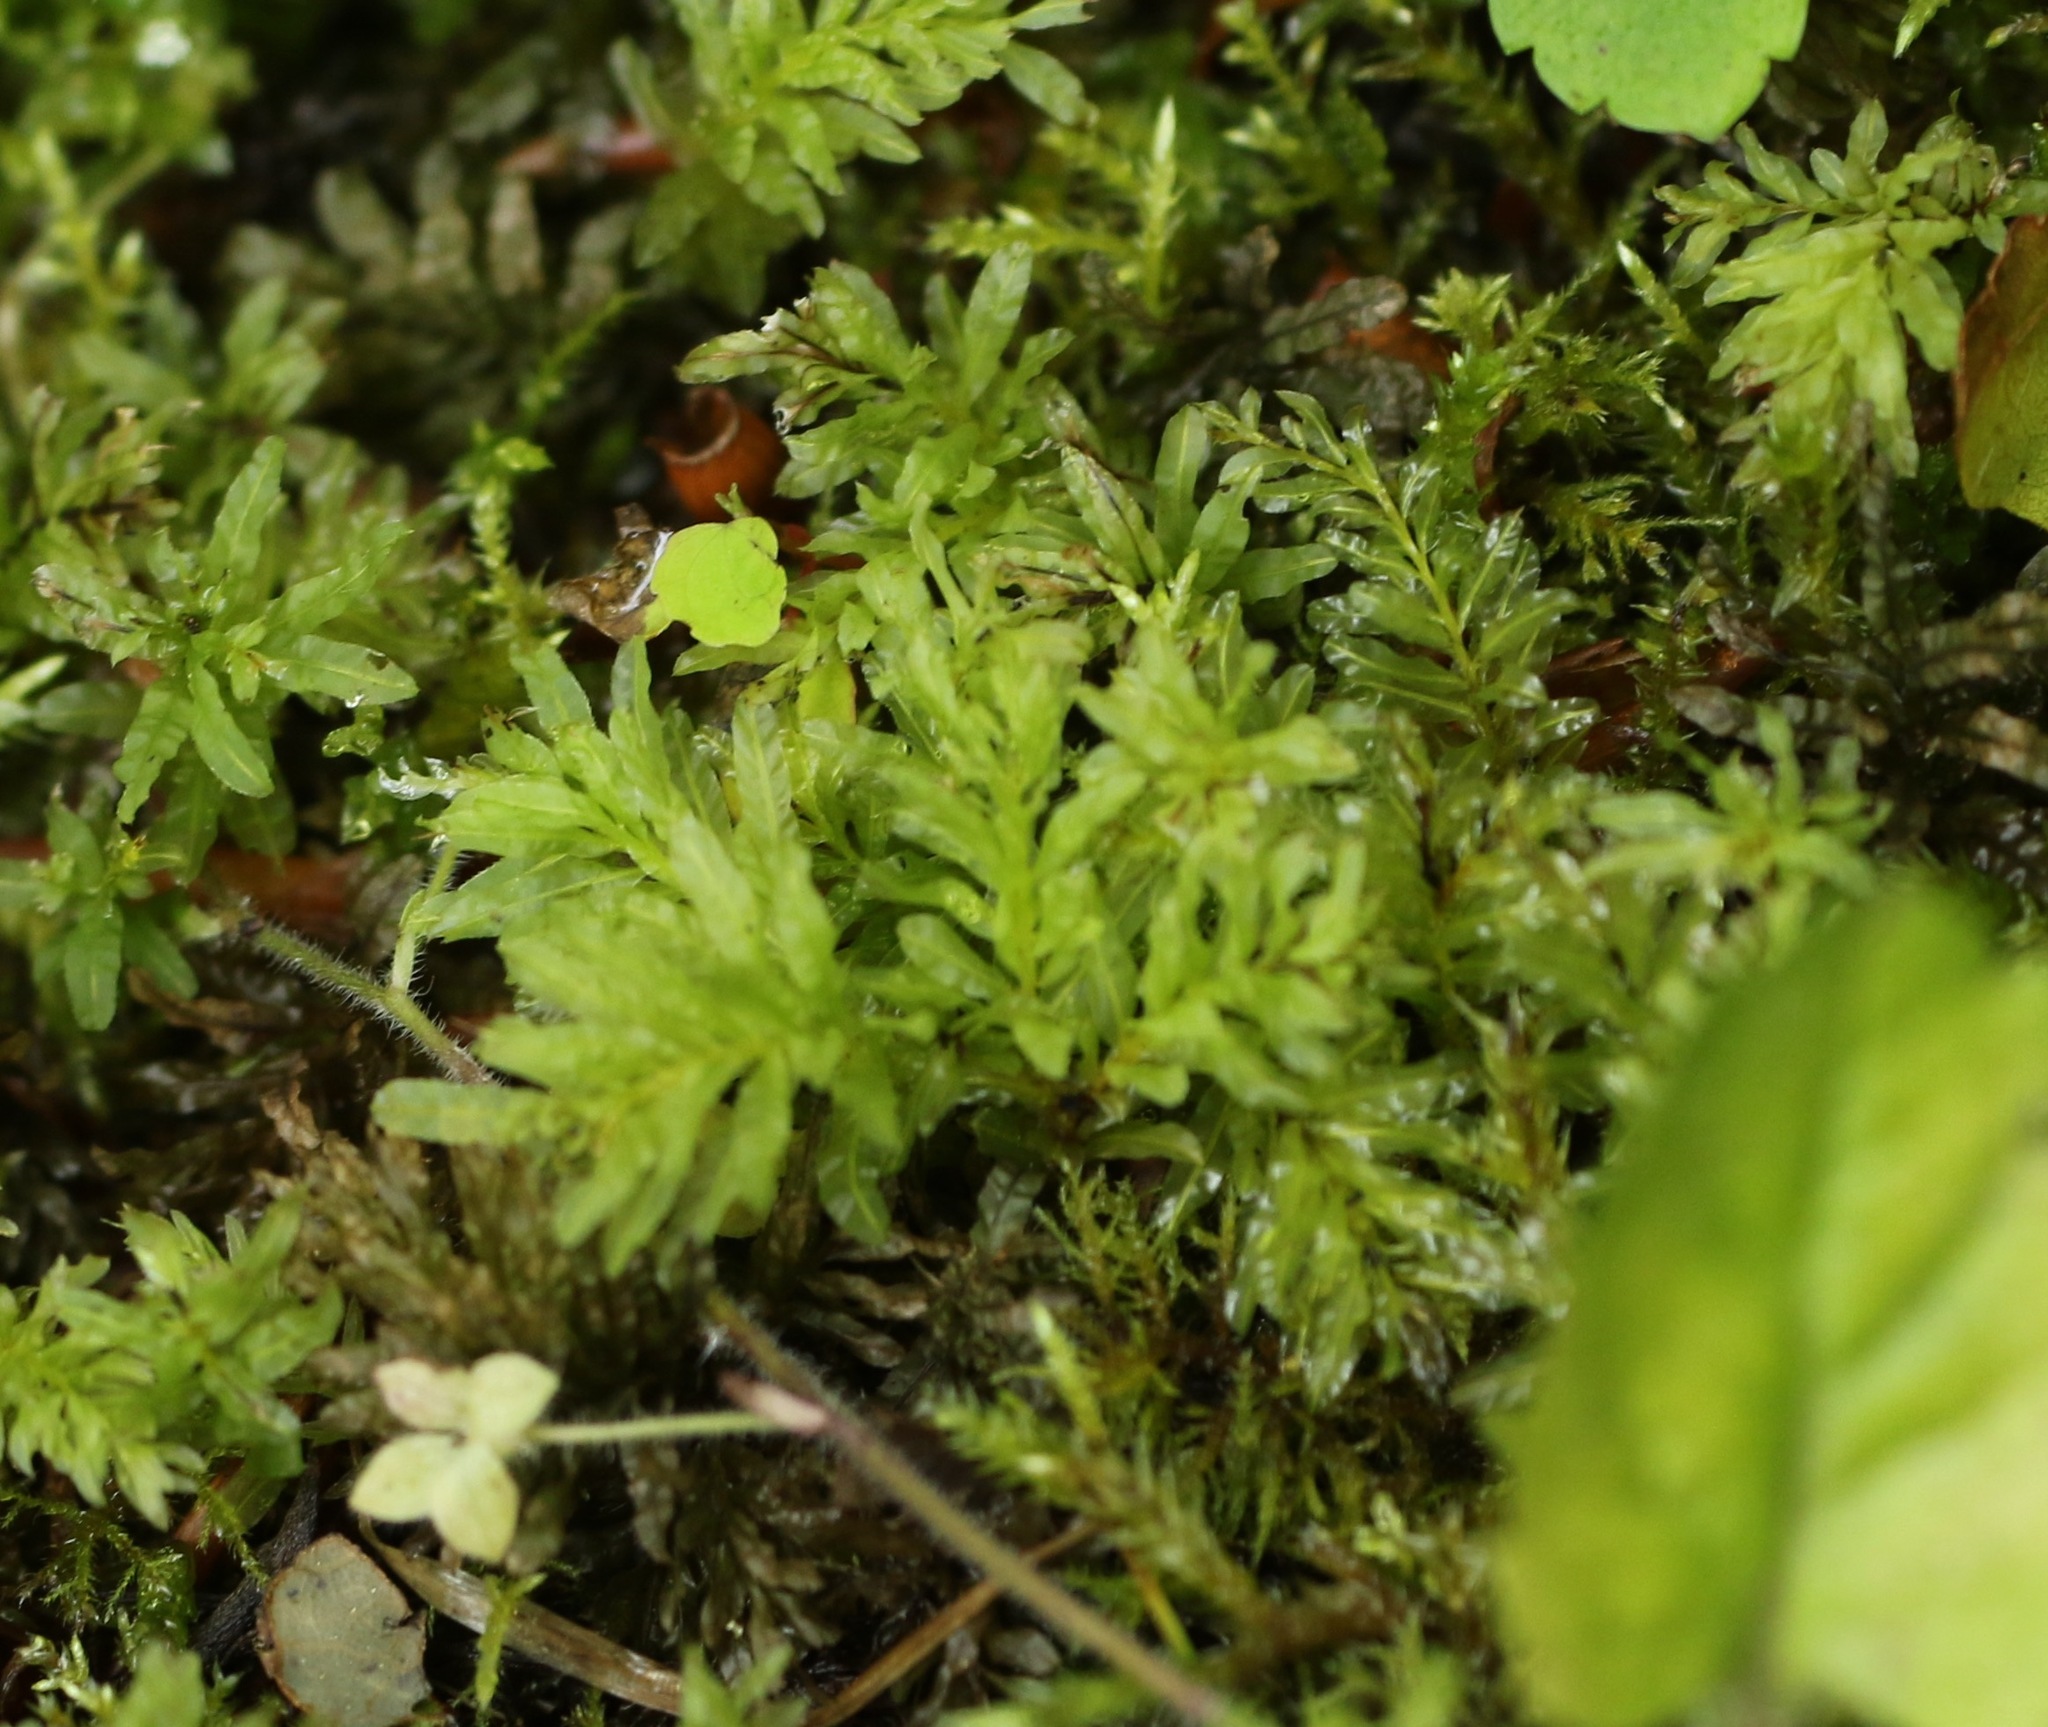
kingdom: Plantae
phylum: Bryophyta
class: Bryopsida
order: Bryales
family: Mniaceae
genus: Plagiomnium
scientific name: Plagiomnium undulatum
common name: Hart's-tongue thyme-moss
